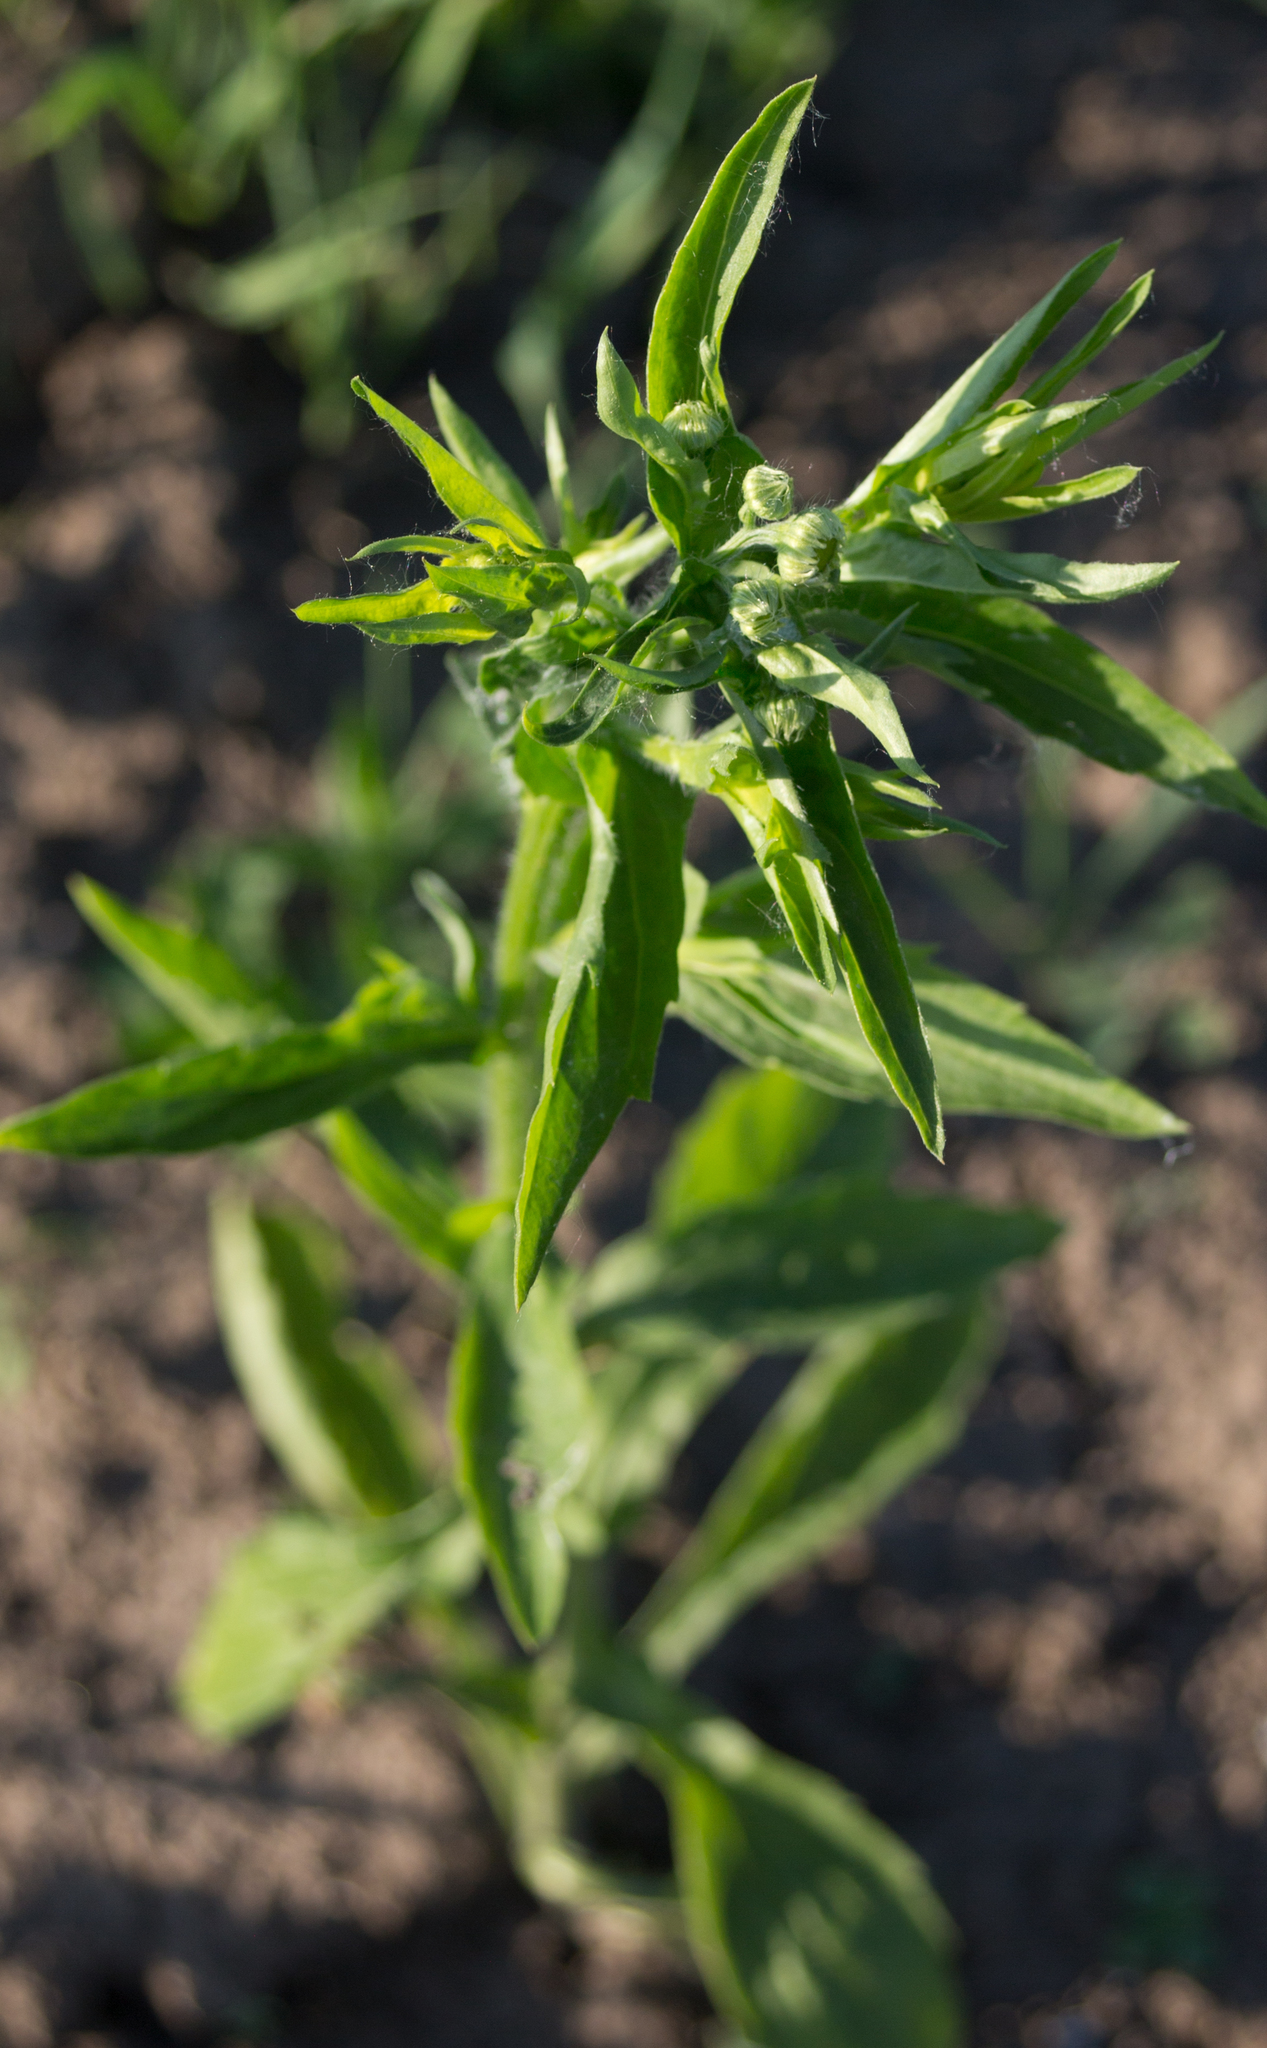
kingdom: Plantae
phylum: Tracheophyta
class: Magnoliopsida
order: Asterales
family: Asteraceae
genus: Erigeron
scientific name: Erigeron annuus
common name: Tall fleabane
